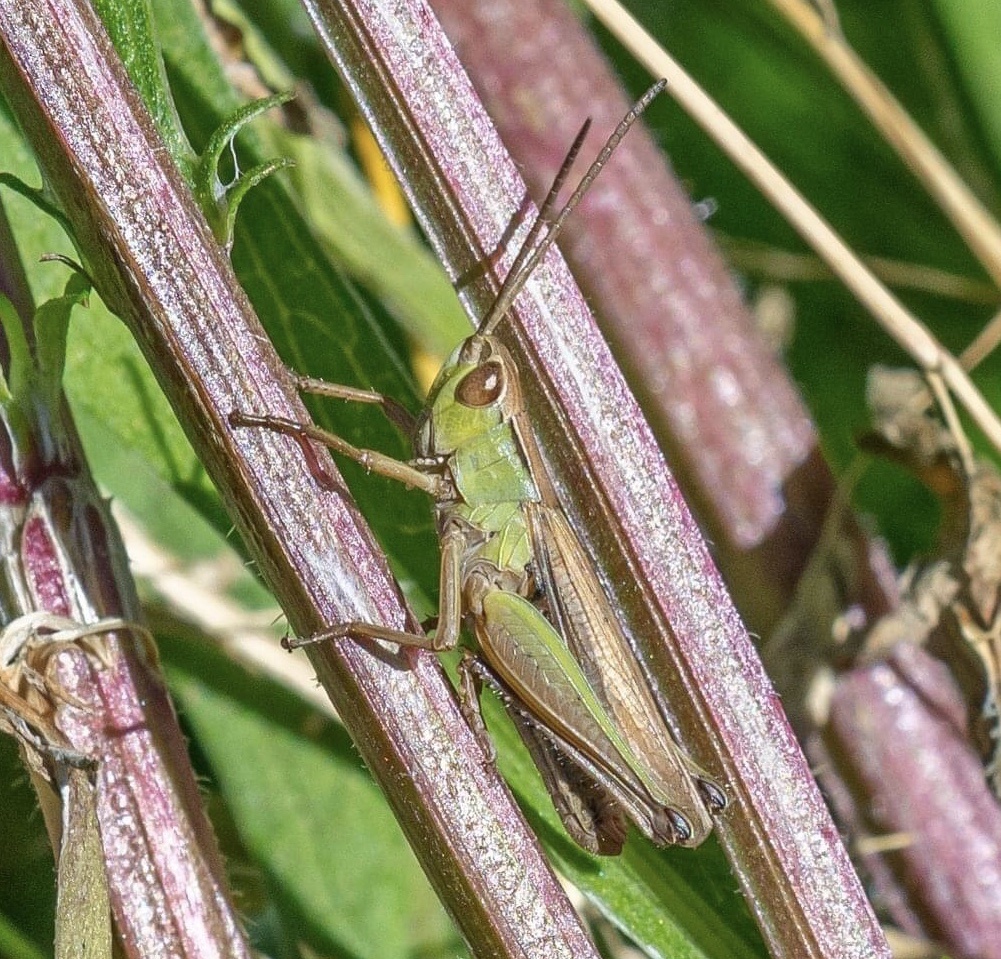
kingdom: Animalia
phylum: Arthropoda
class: Insecta
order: Orthoptera
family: Acrididae
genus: Pseudochorthippus
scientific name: Pseudochorthippus parallelus
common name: Meadow grasshopper
